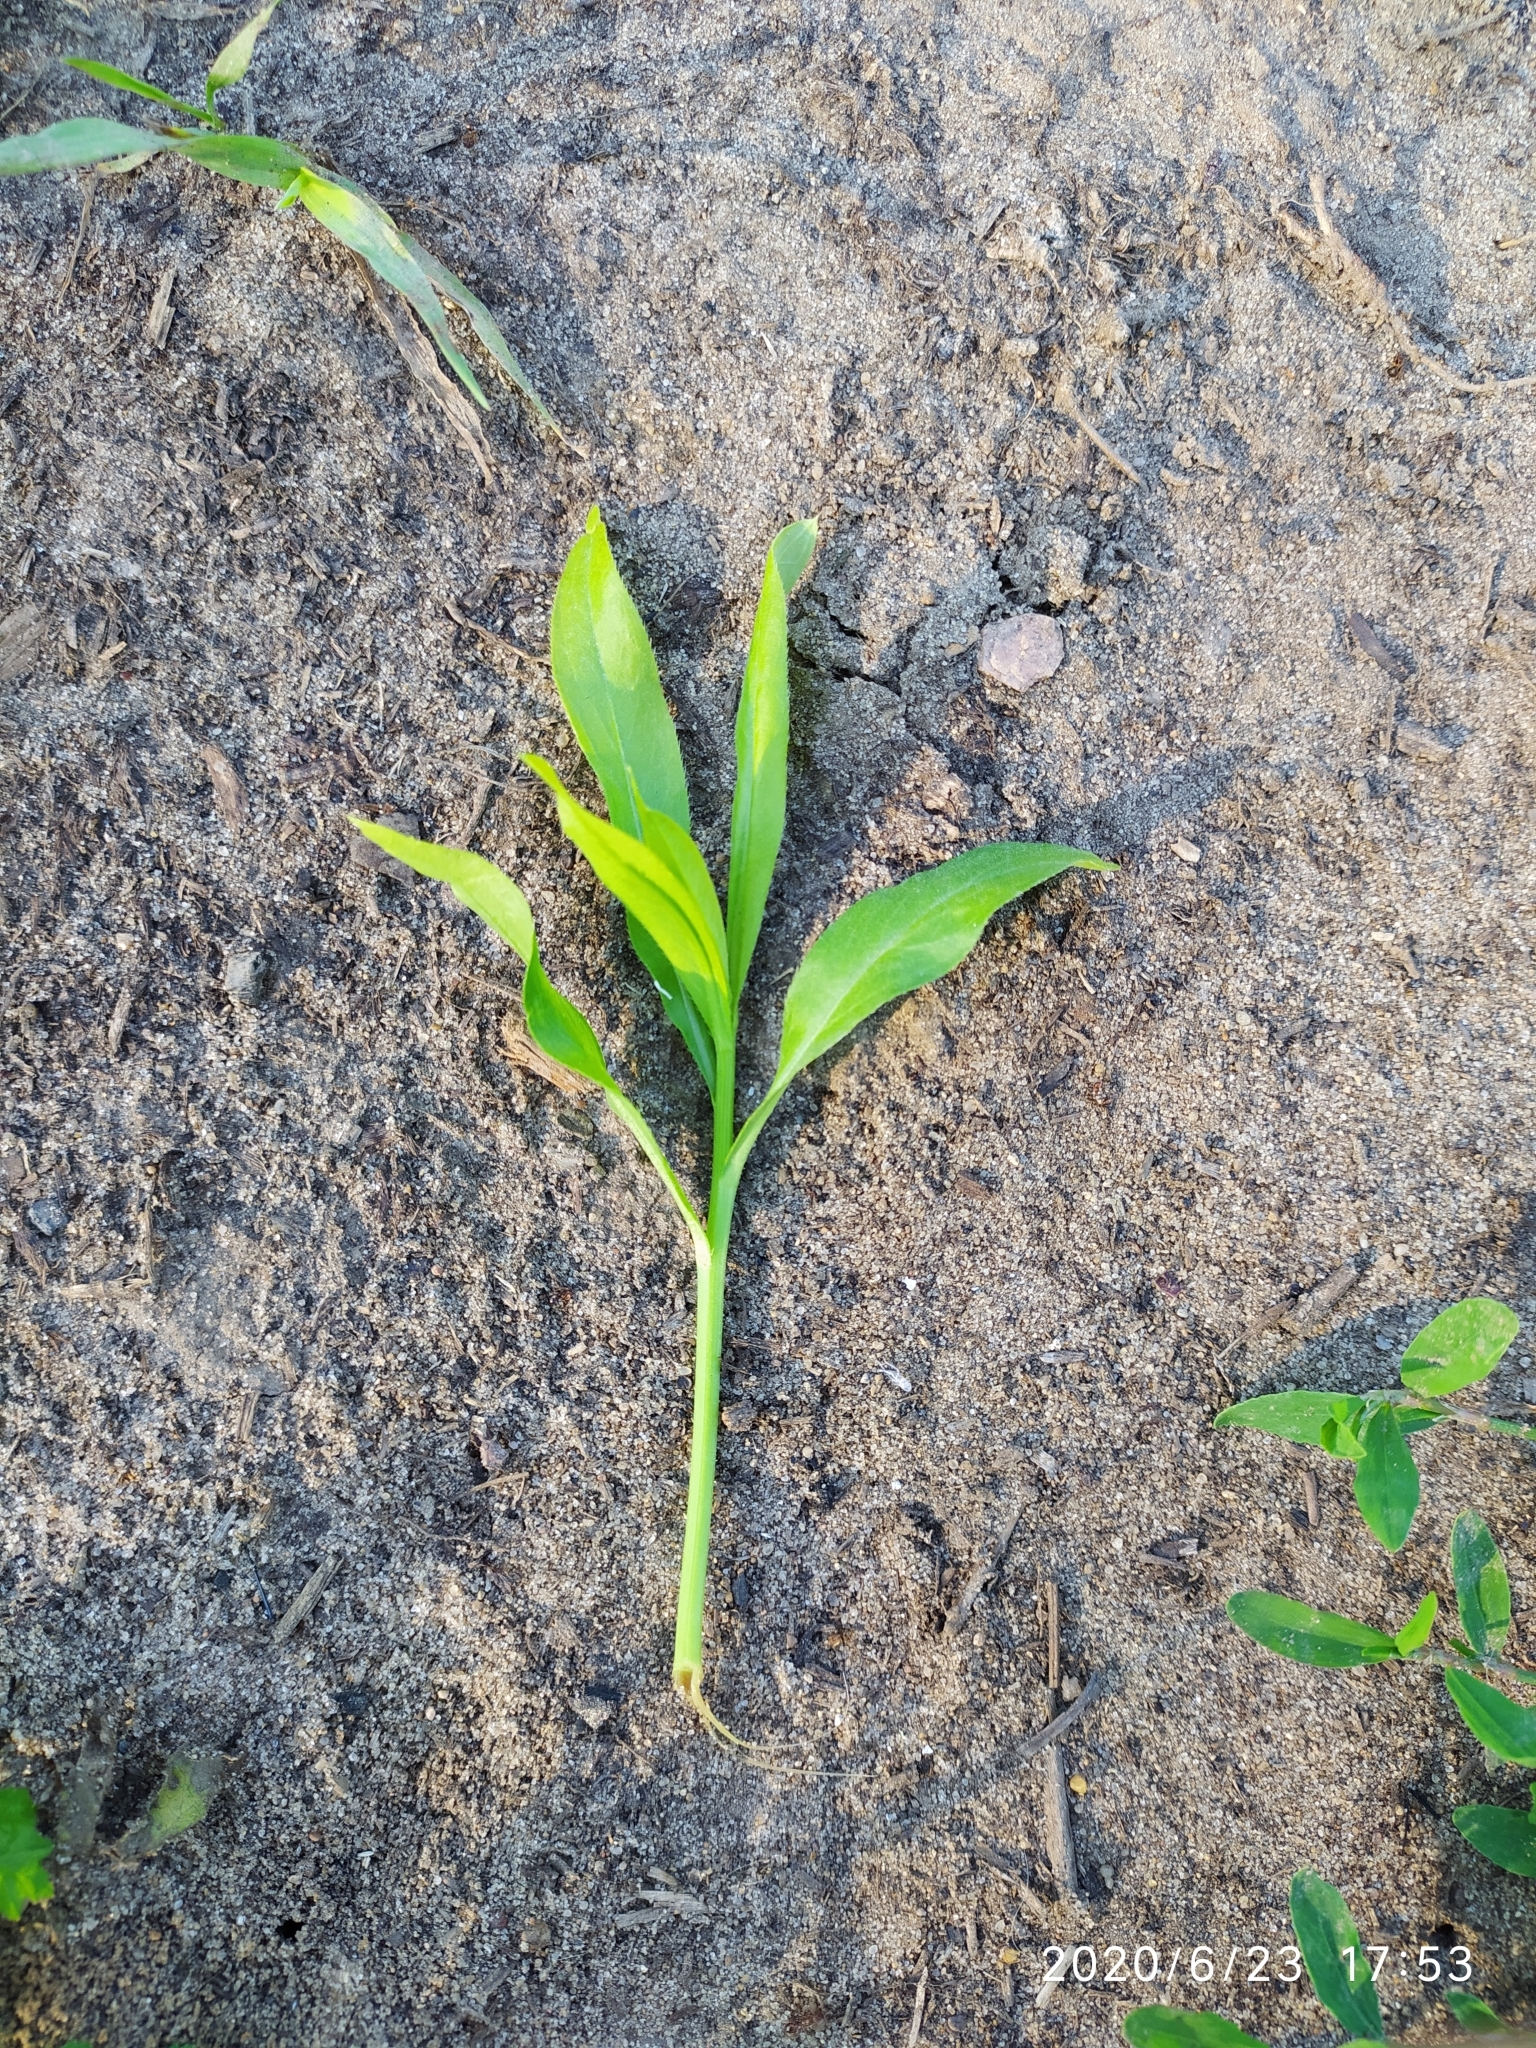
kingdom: Plantae
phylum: Tracheophyta
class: Magnoliopsida
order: Asterales
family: Asteraceae
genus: Cirsium
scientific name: Cirsium arvense
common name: Creeping thistle
